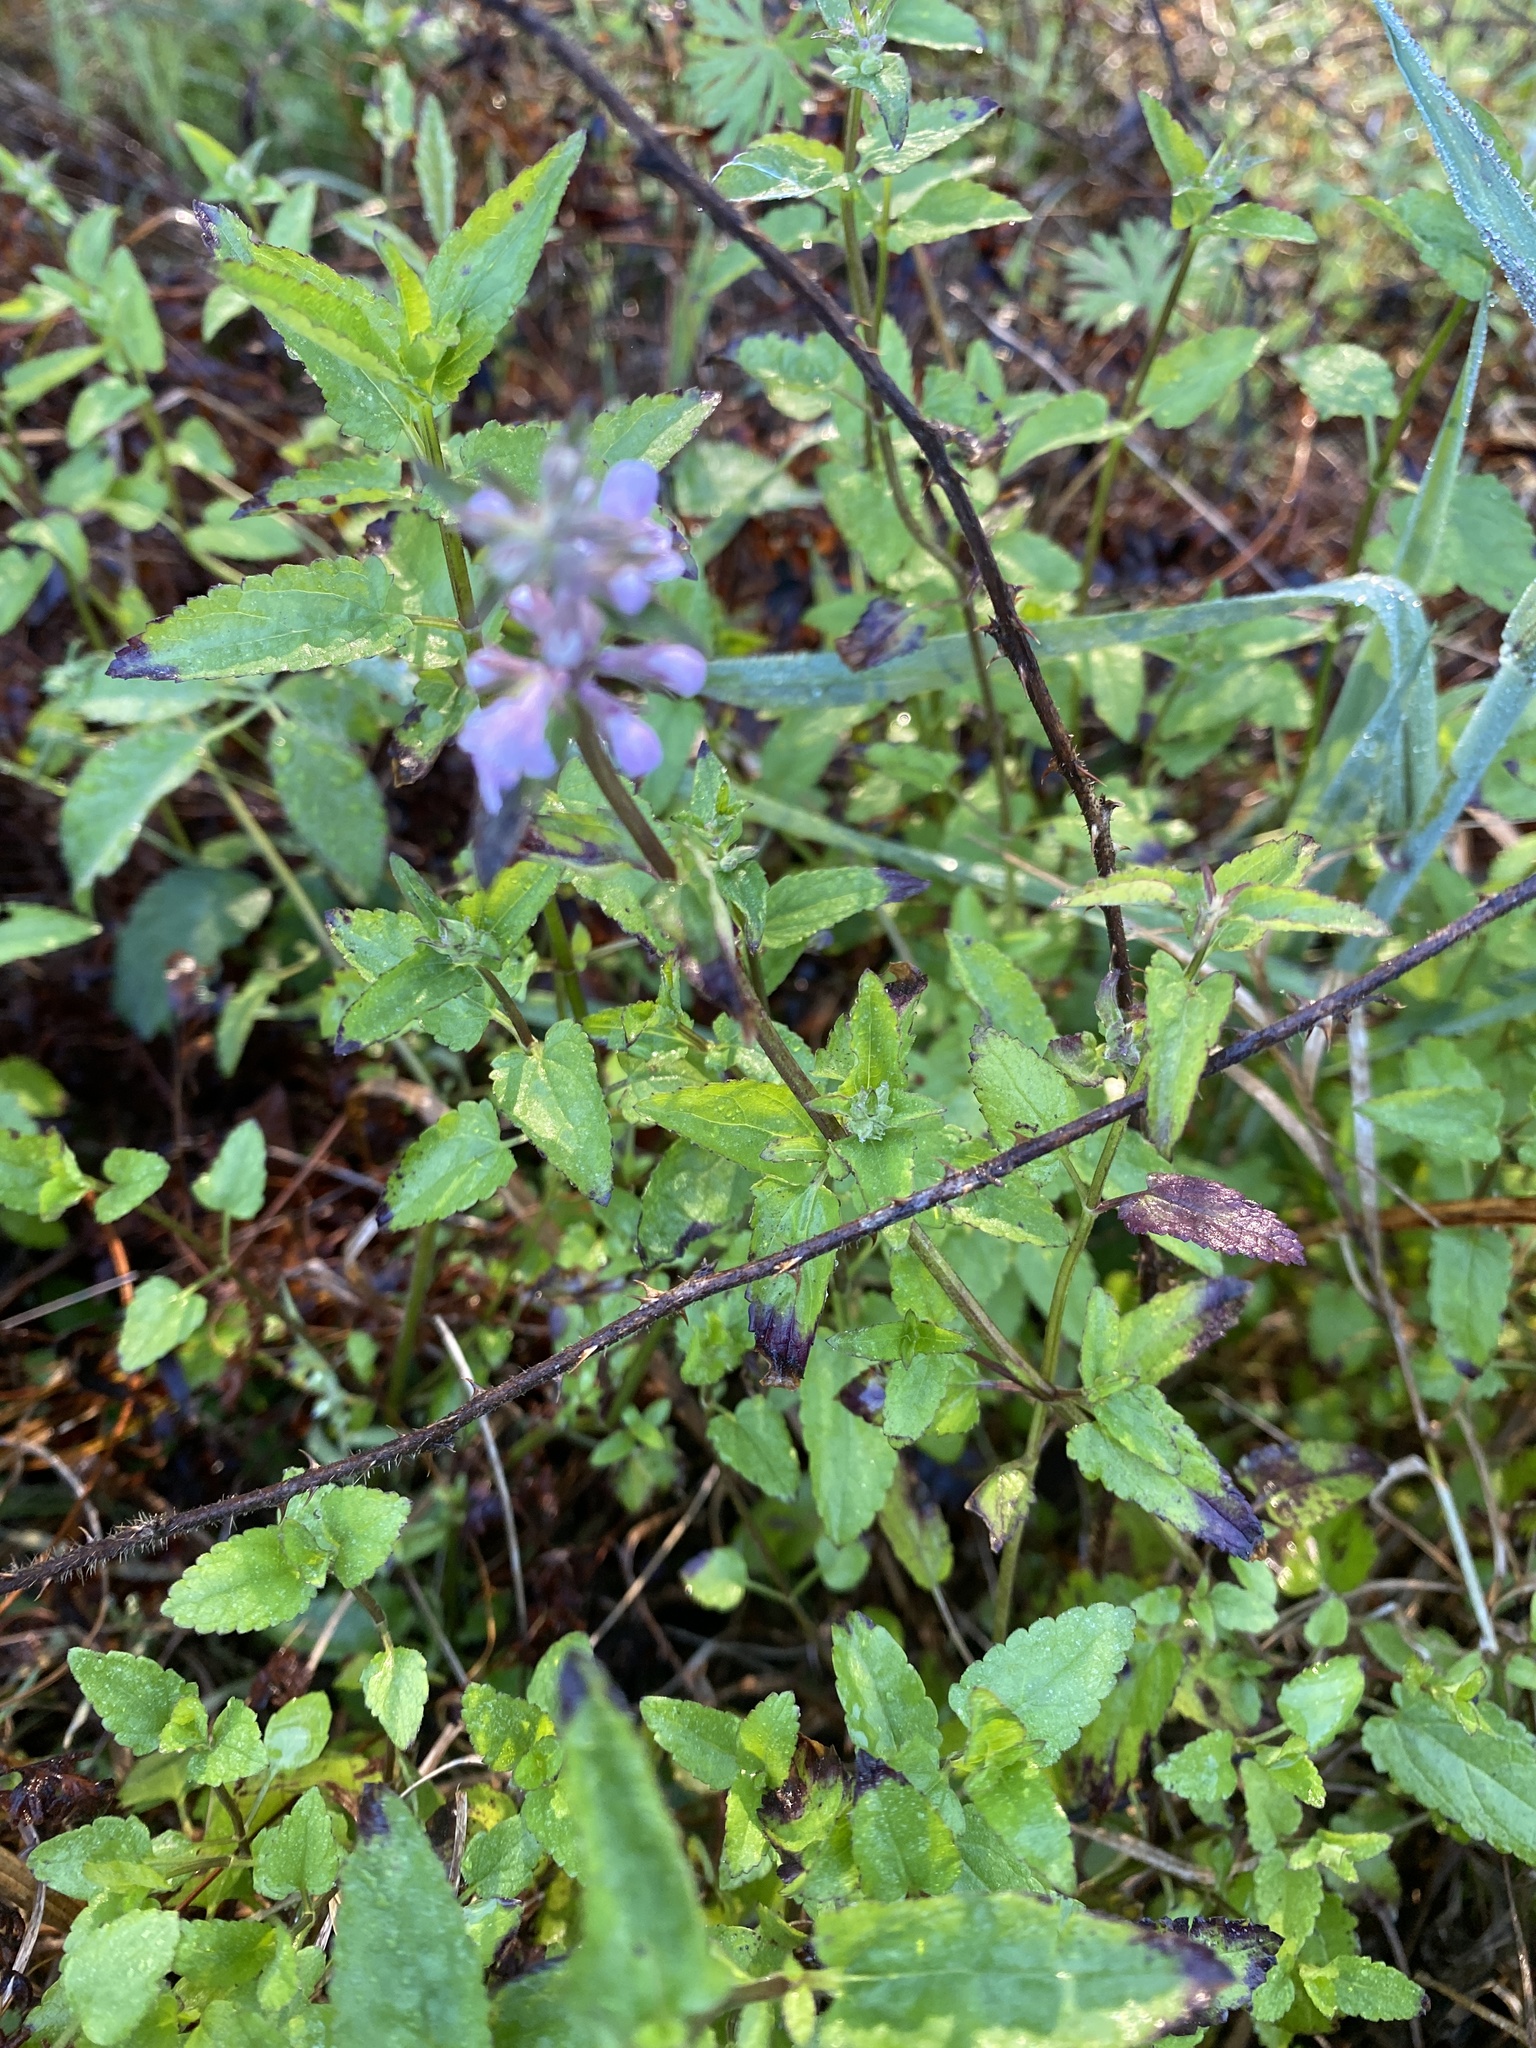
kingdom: Plantae
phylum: Tracheophyta
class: Magnoliopsida
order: Lamiales
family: Lamiaceae
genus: Stachys
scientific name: Stachys floridana
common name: Florida betony
